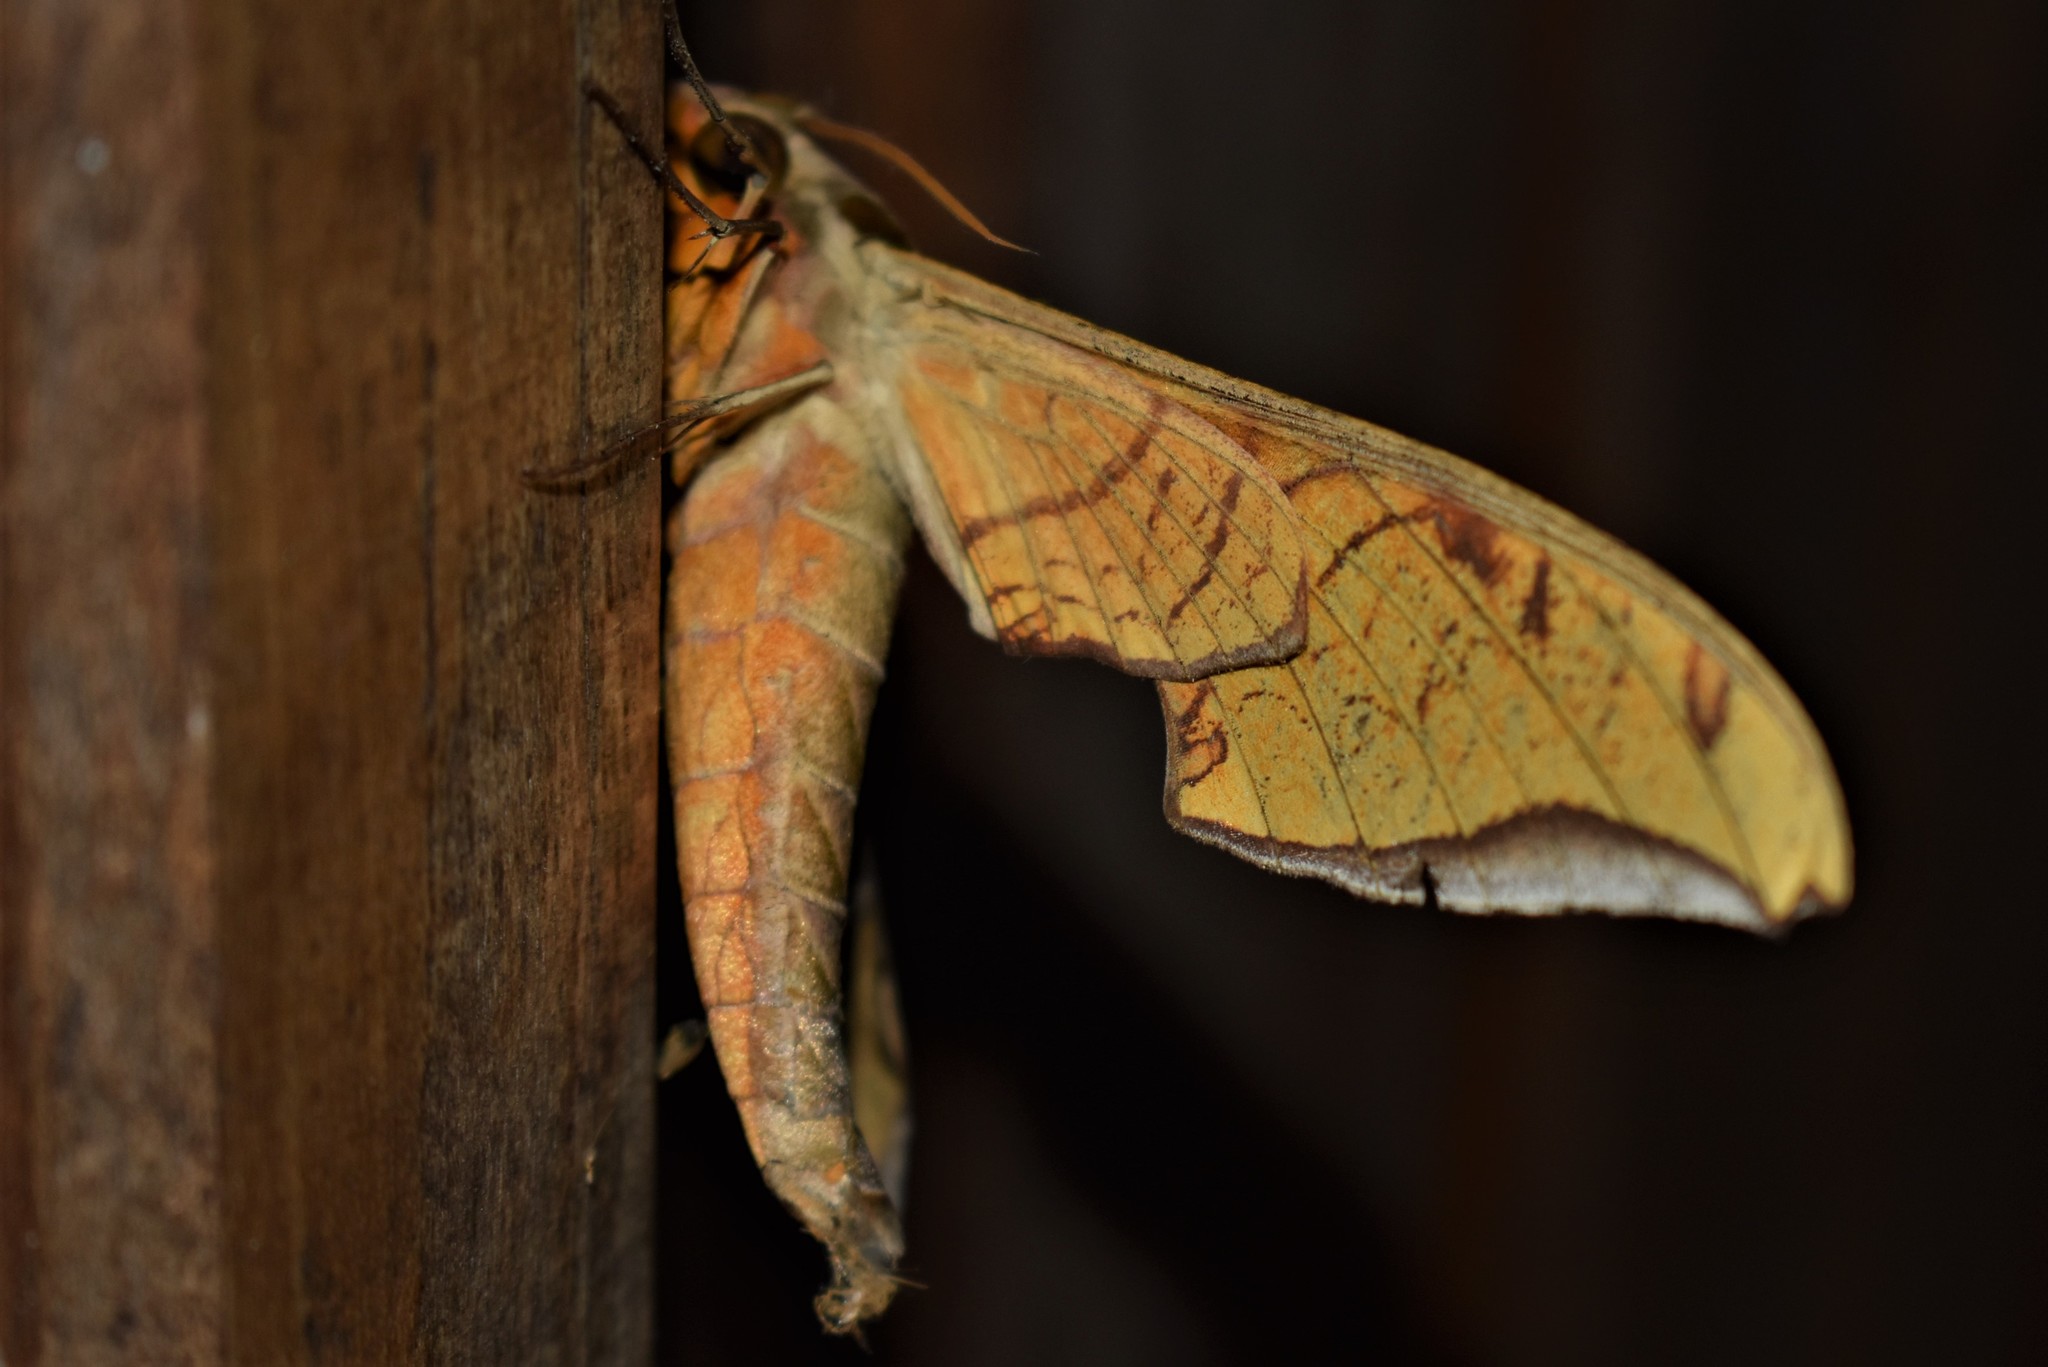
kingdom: Animalia
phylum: Arthropoda
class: Insecta
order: Lepidoptera
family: Sphingidae
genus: Protambulyx
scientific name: Protambulyx strigilis
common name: Streaked sphinx
